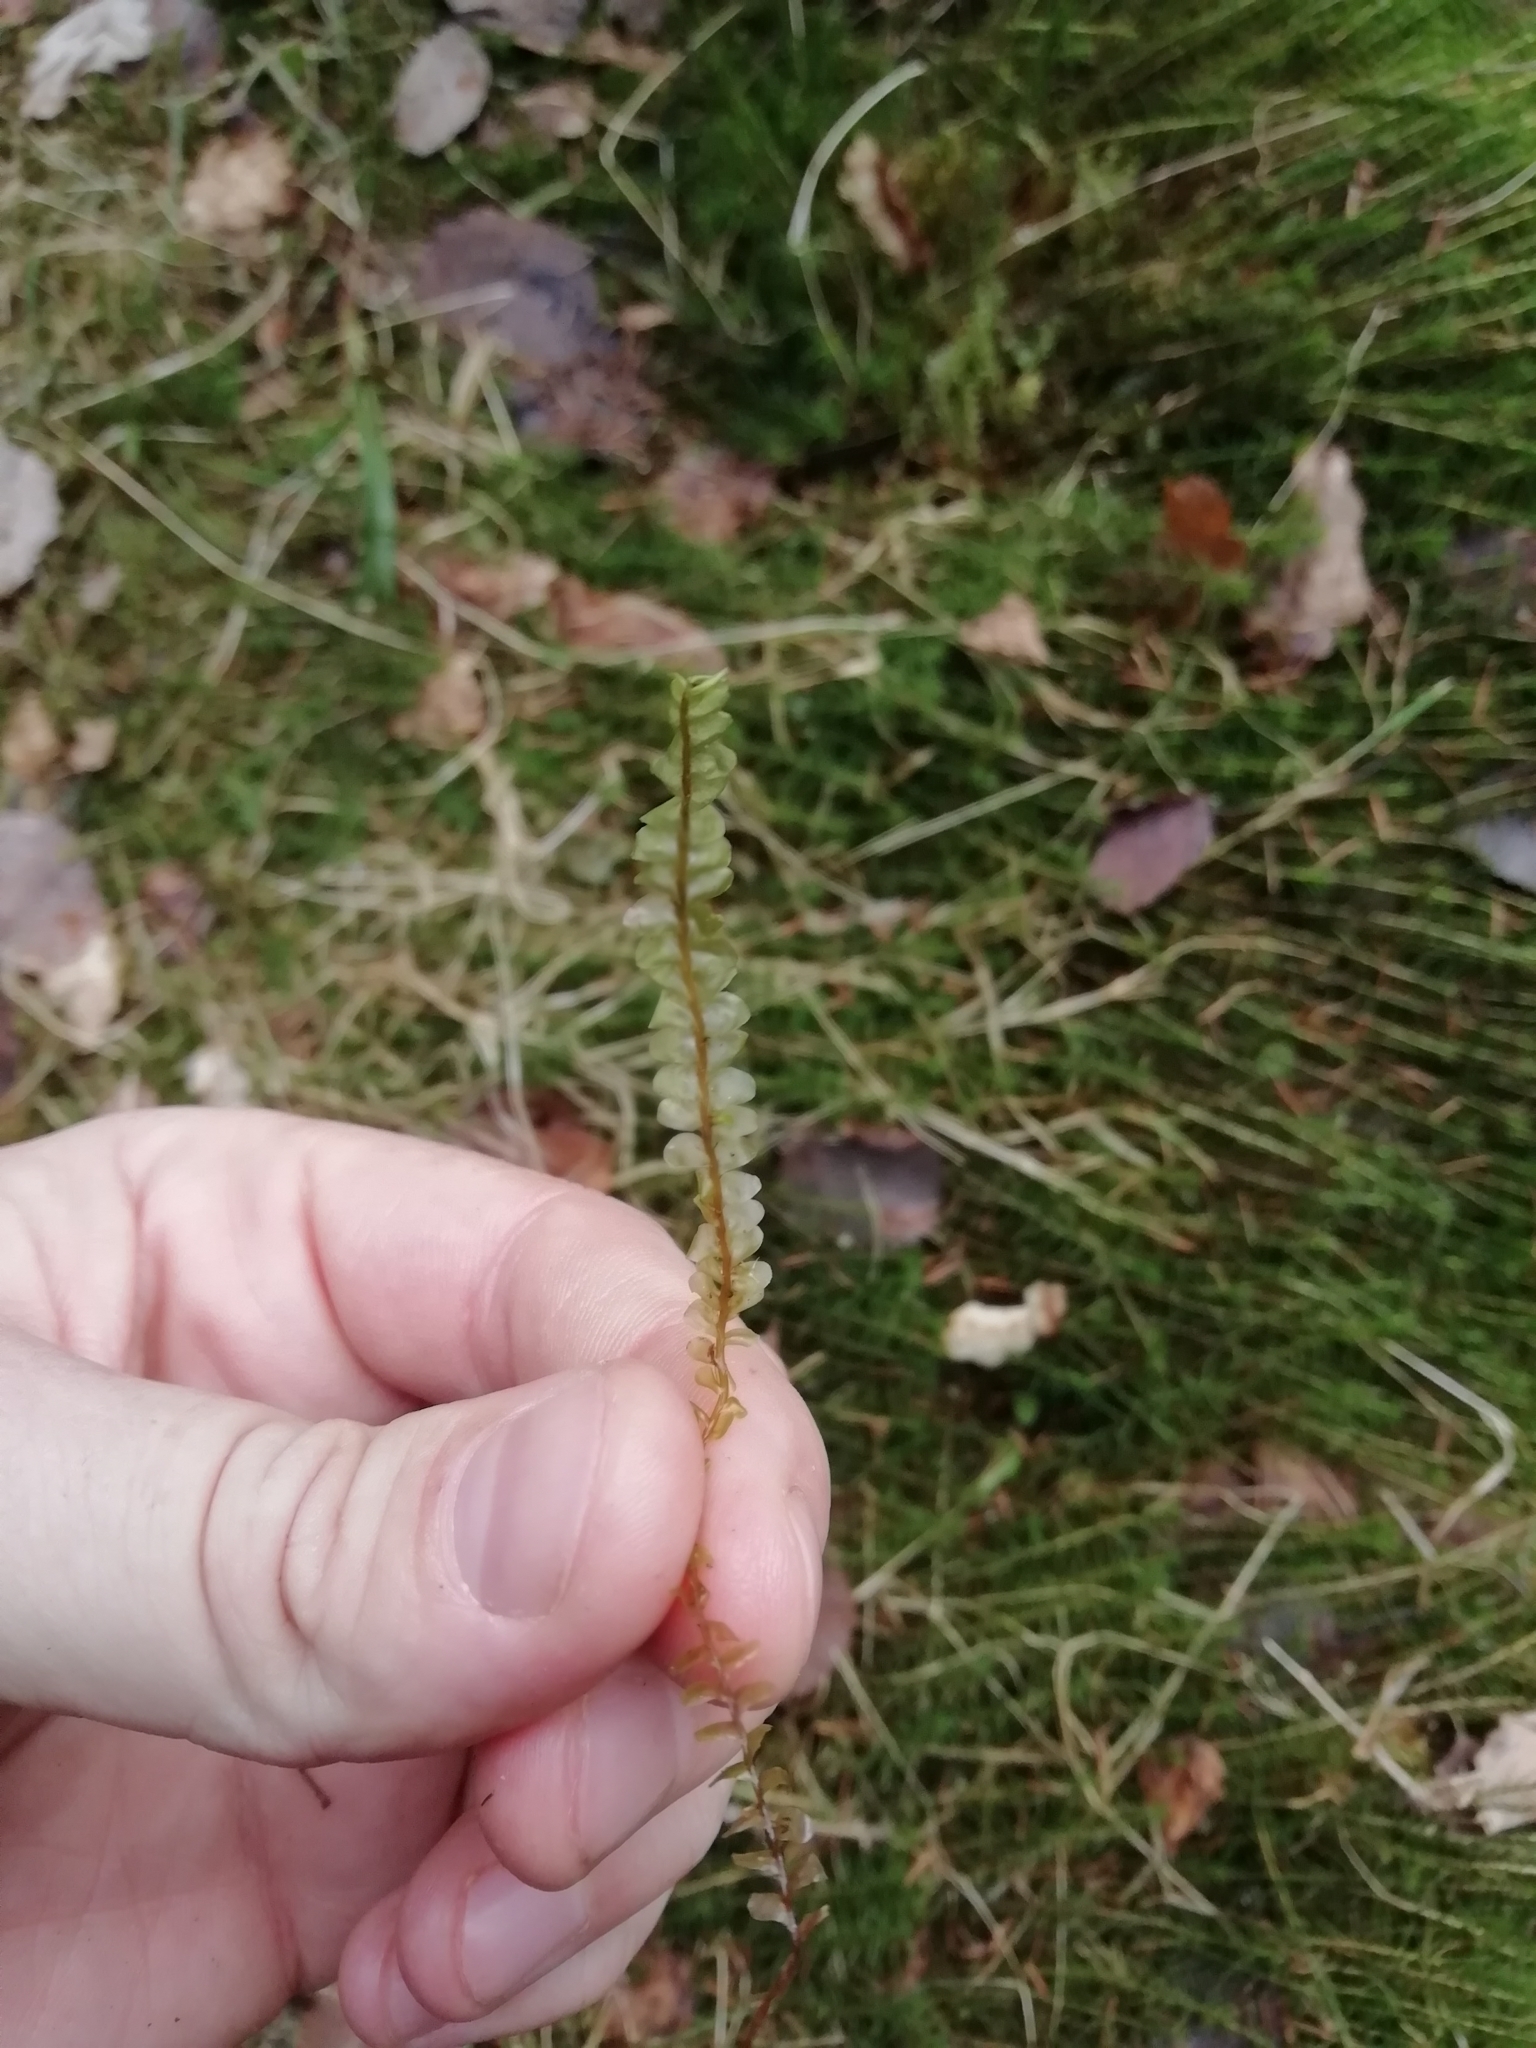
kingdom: Plantae
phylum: Marchantiophyta
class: Jungermanniopsida
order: Jungermanniales
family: Plagiochilaceae
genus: Plagiochila
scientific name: Plagiochila asplenioides
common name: Greater featherwort
